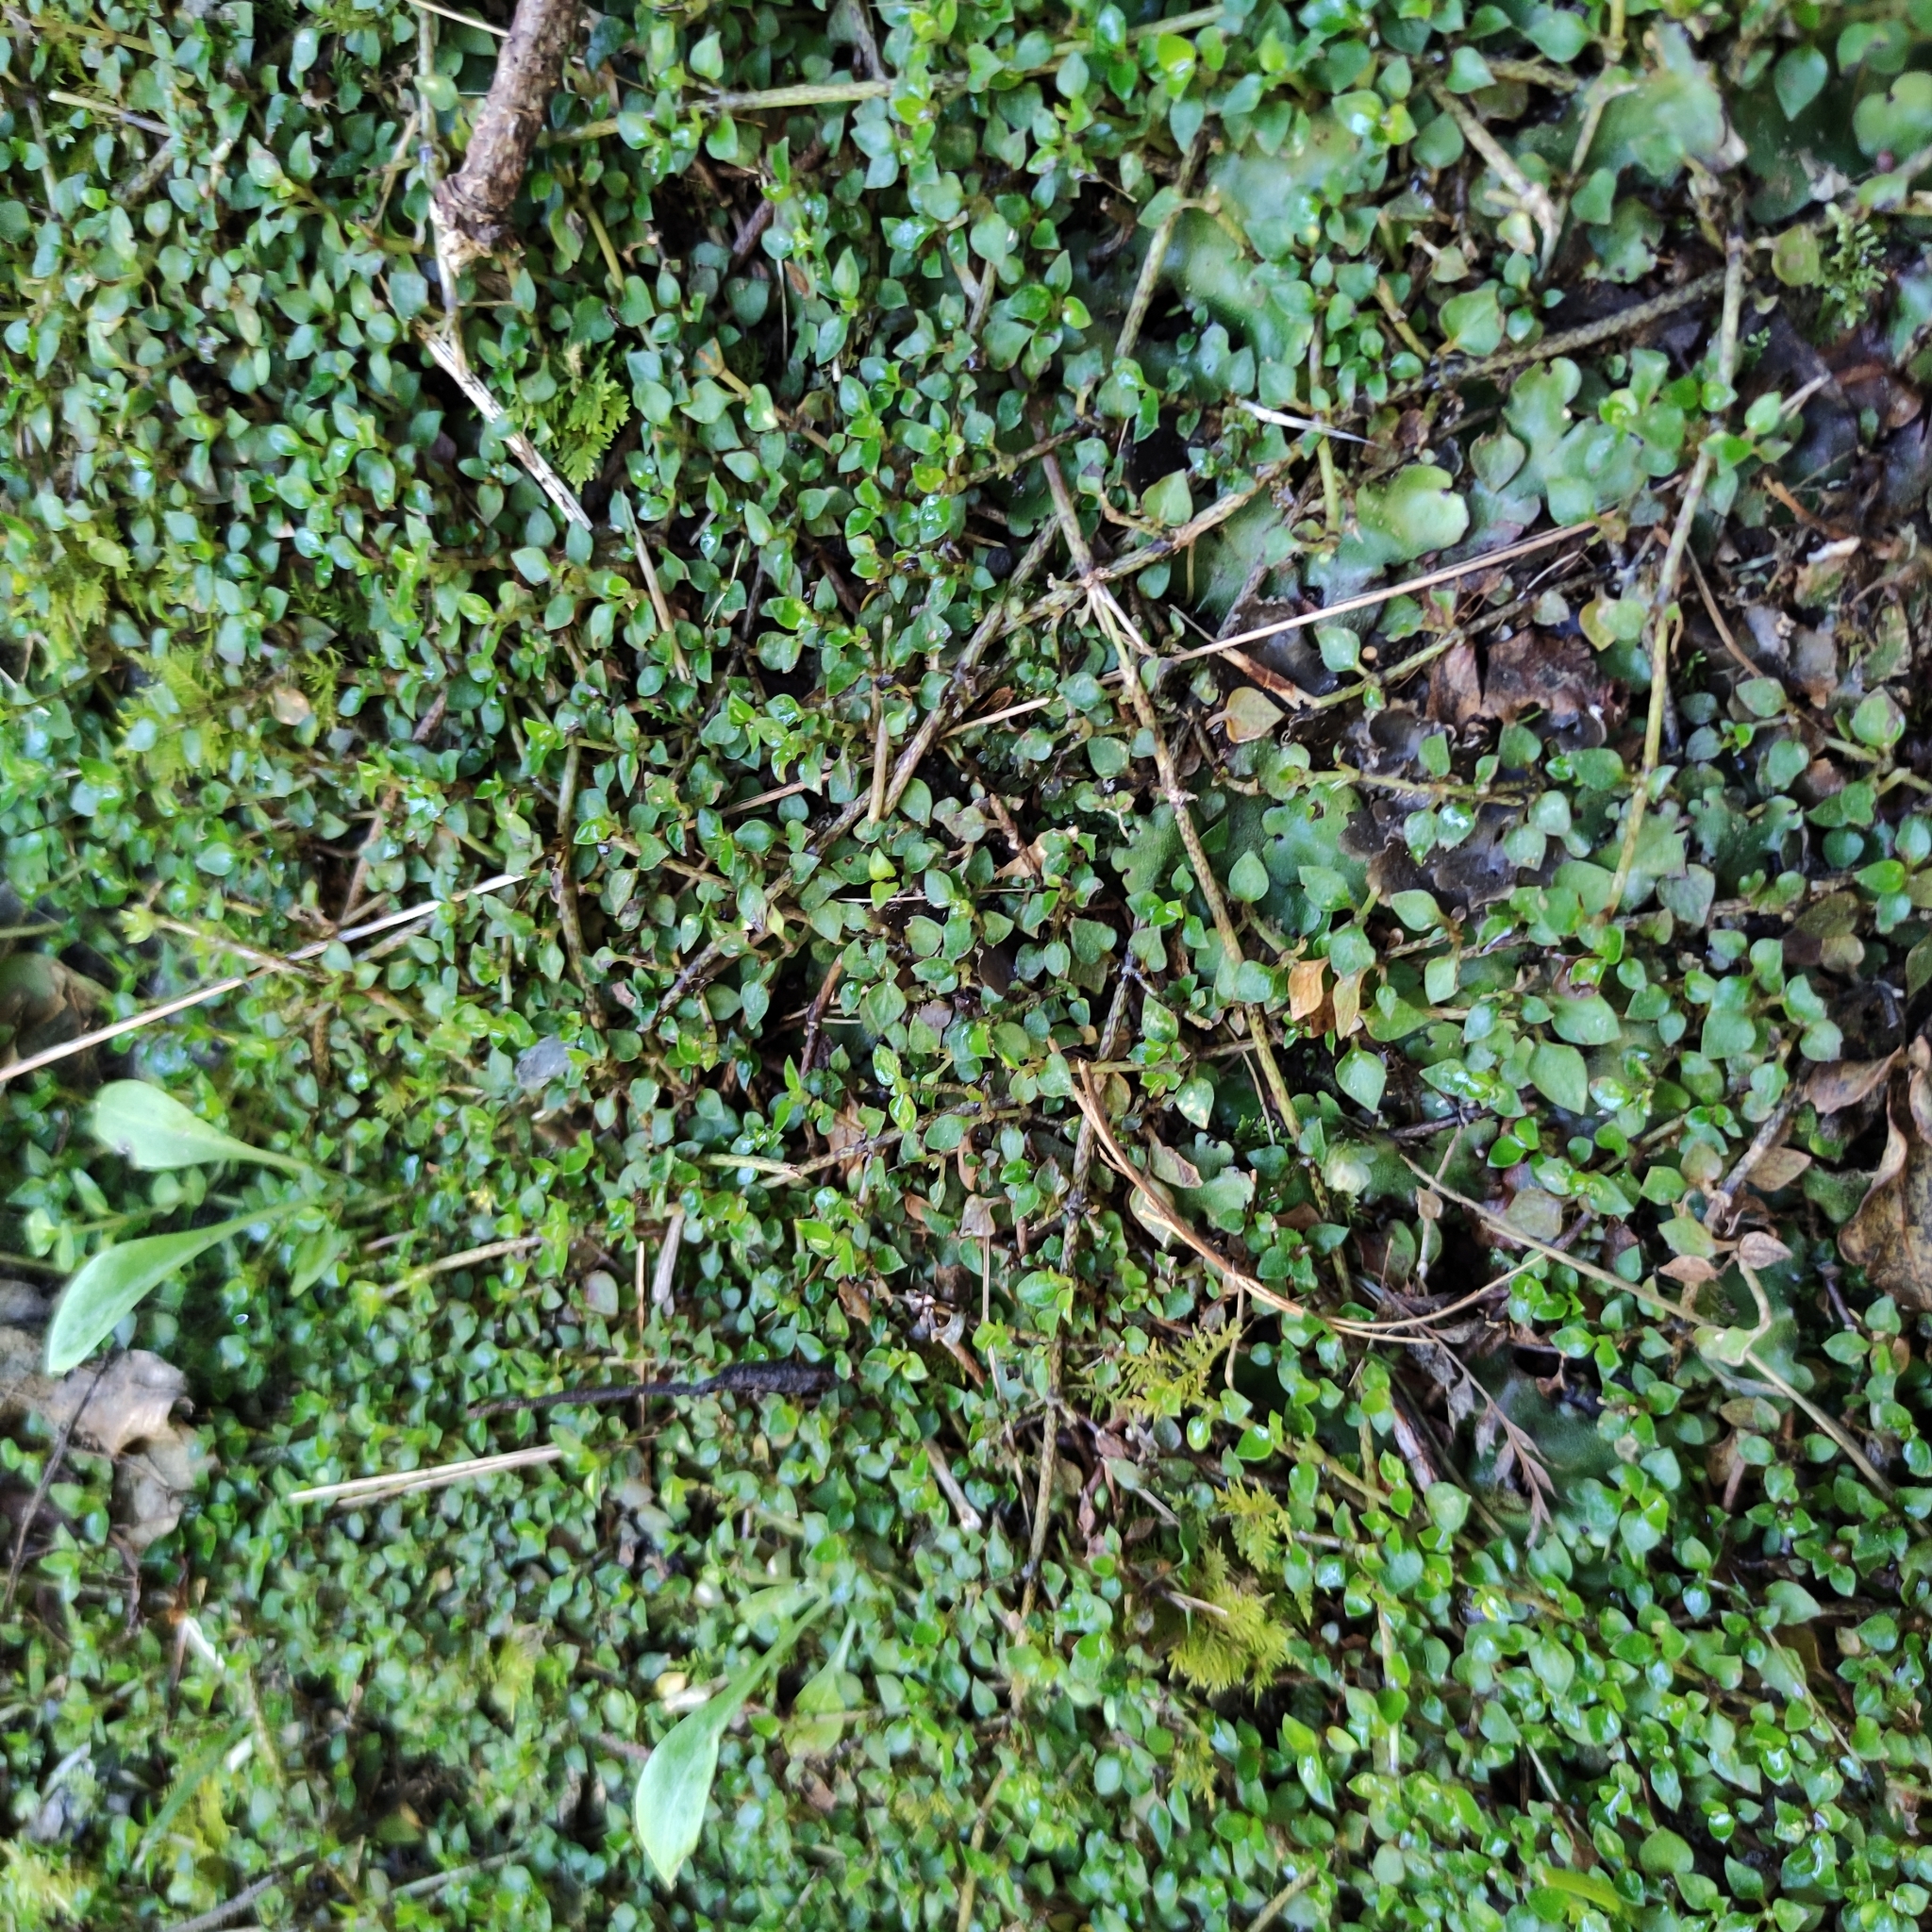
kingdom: Plantae
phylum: Tracheophyta
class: Magnoliopsida
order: Gentianales
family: Rubiaceae
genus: Nertera
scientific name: Nertera granadensis
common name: Beadplant
